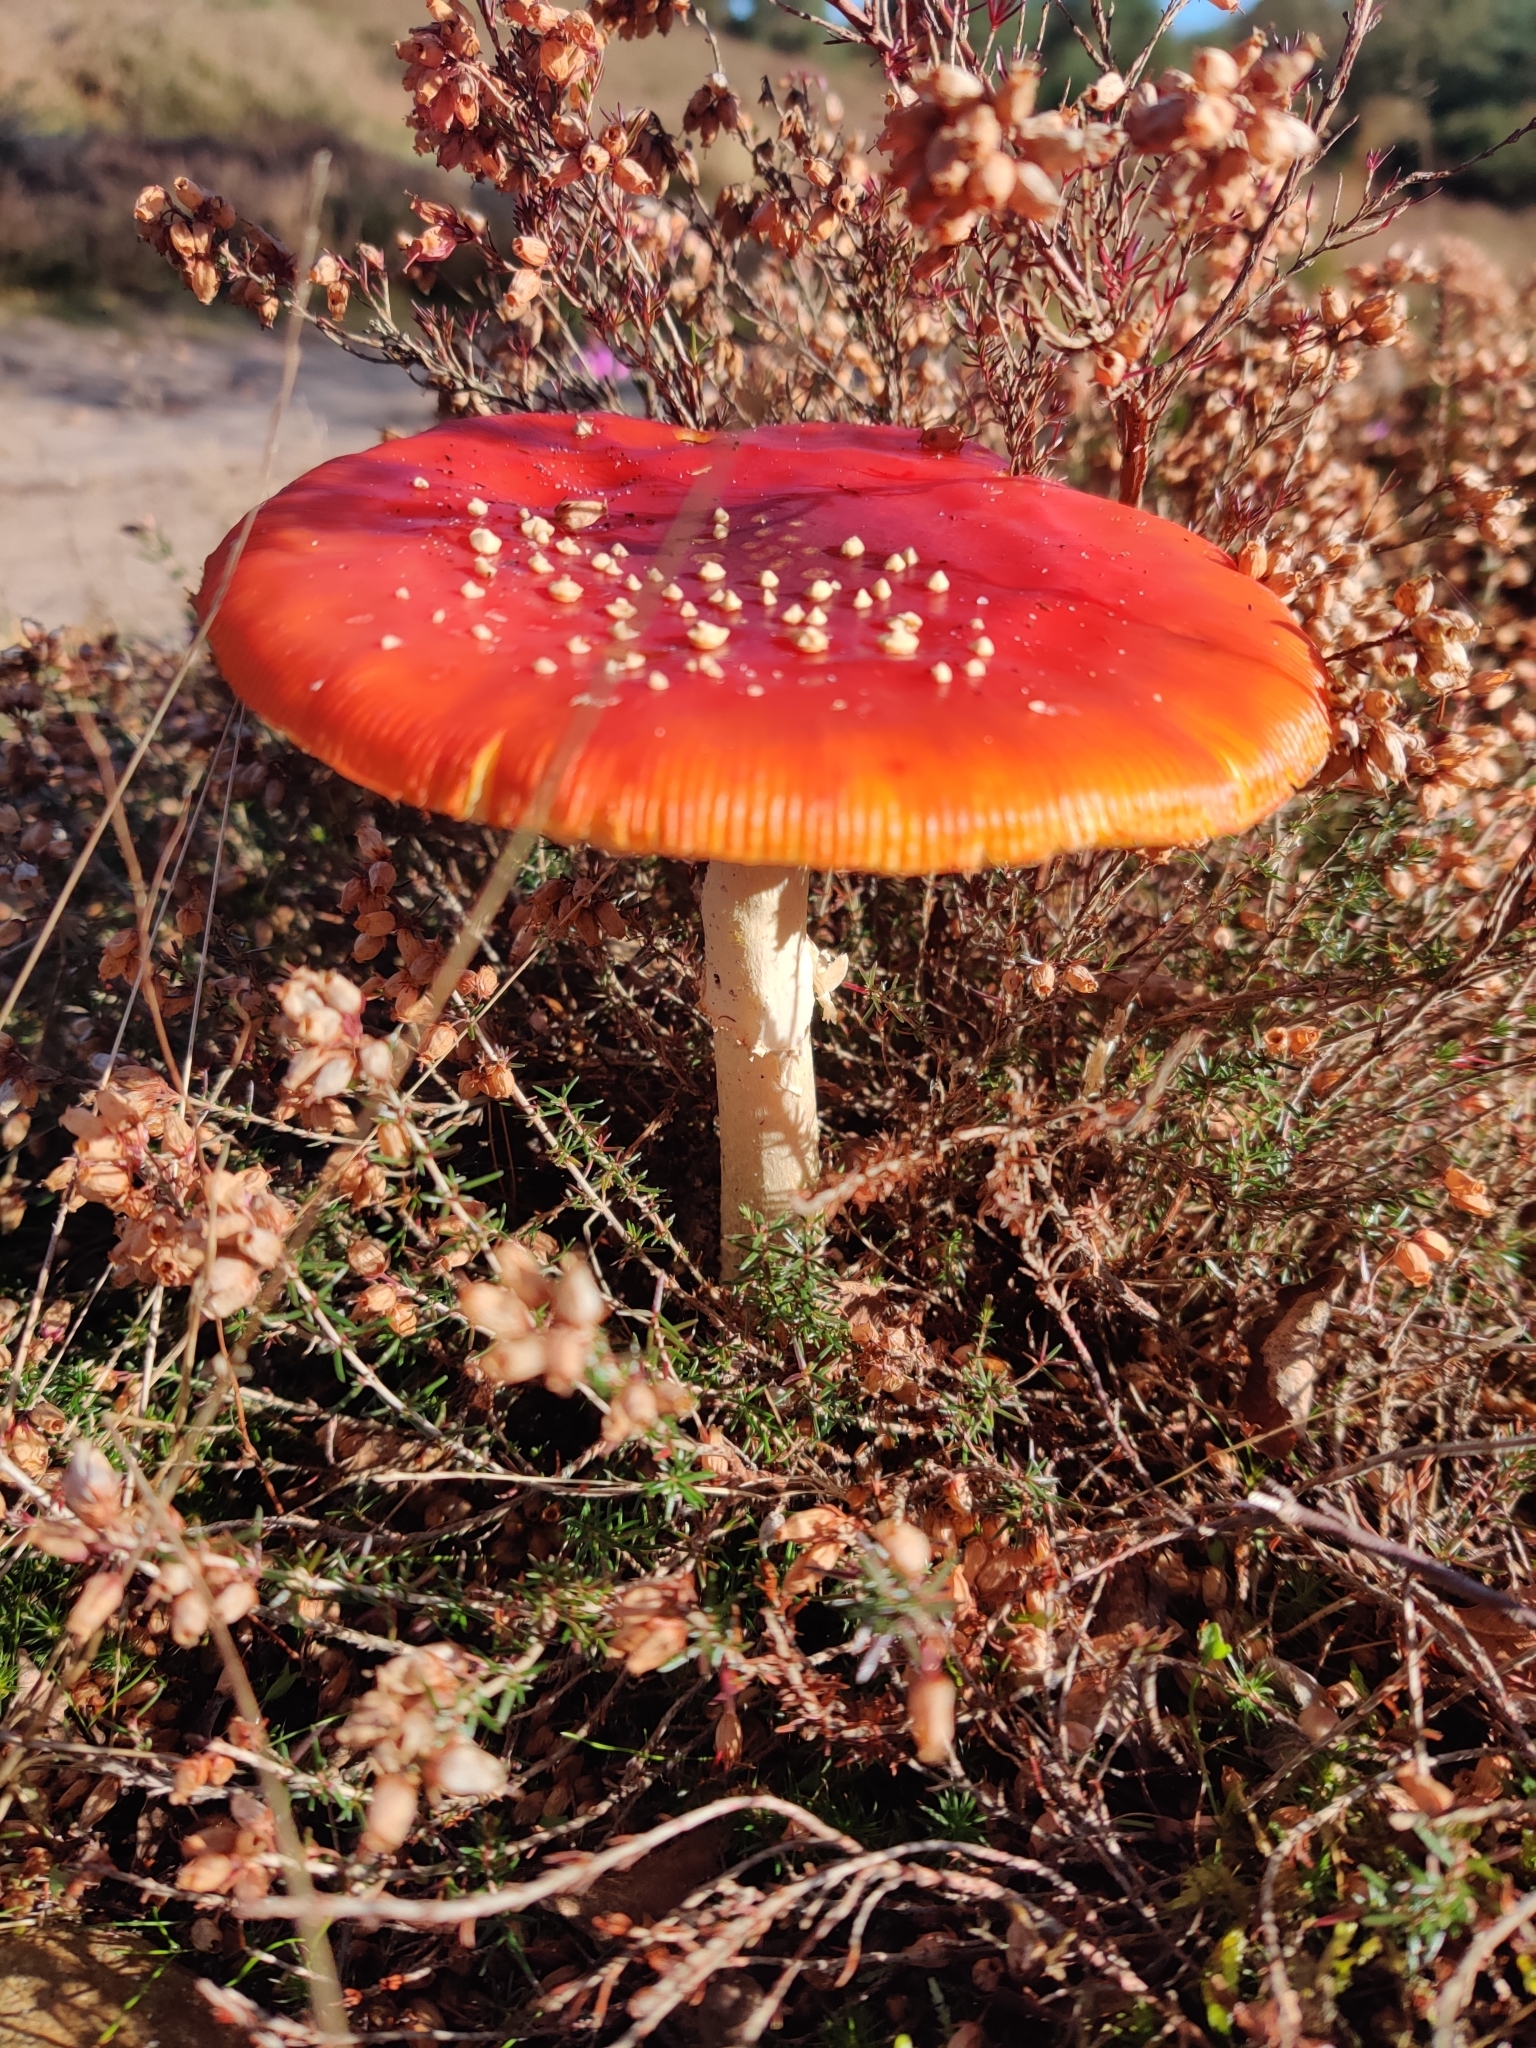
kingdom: Fungi
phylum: Basidiomycota
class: Agaricomycetes
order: Agaricales
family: Amanitaceae
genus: Amanita
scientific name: Amanita muscaria
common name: Fly agaric
